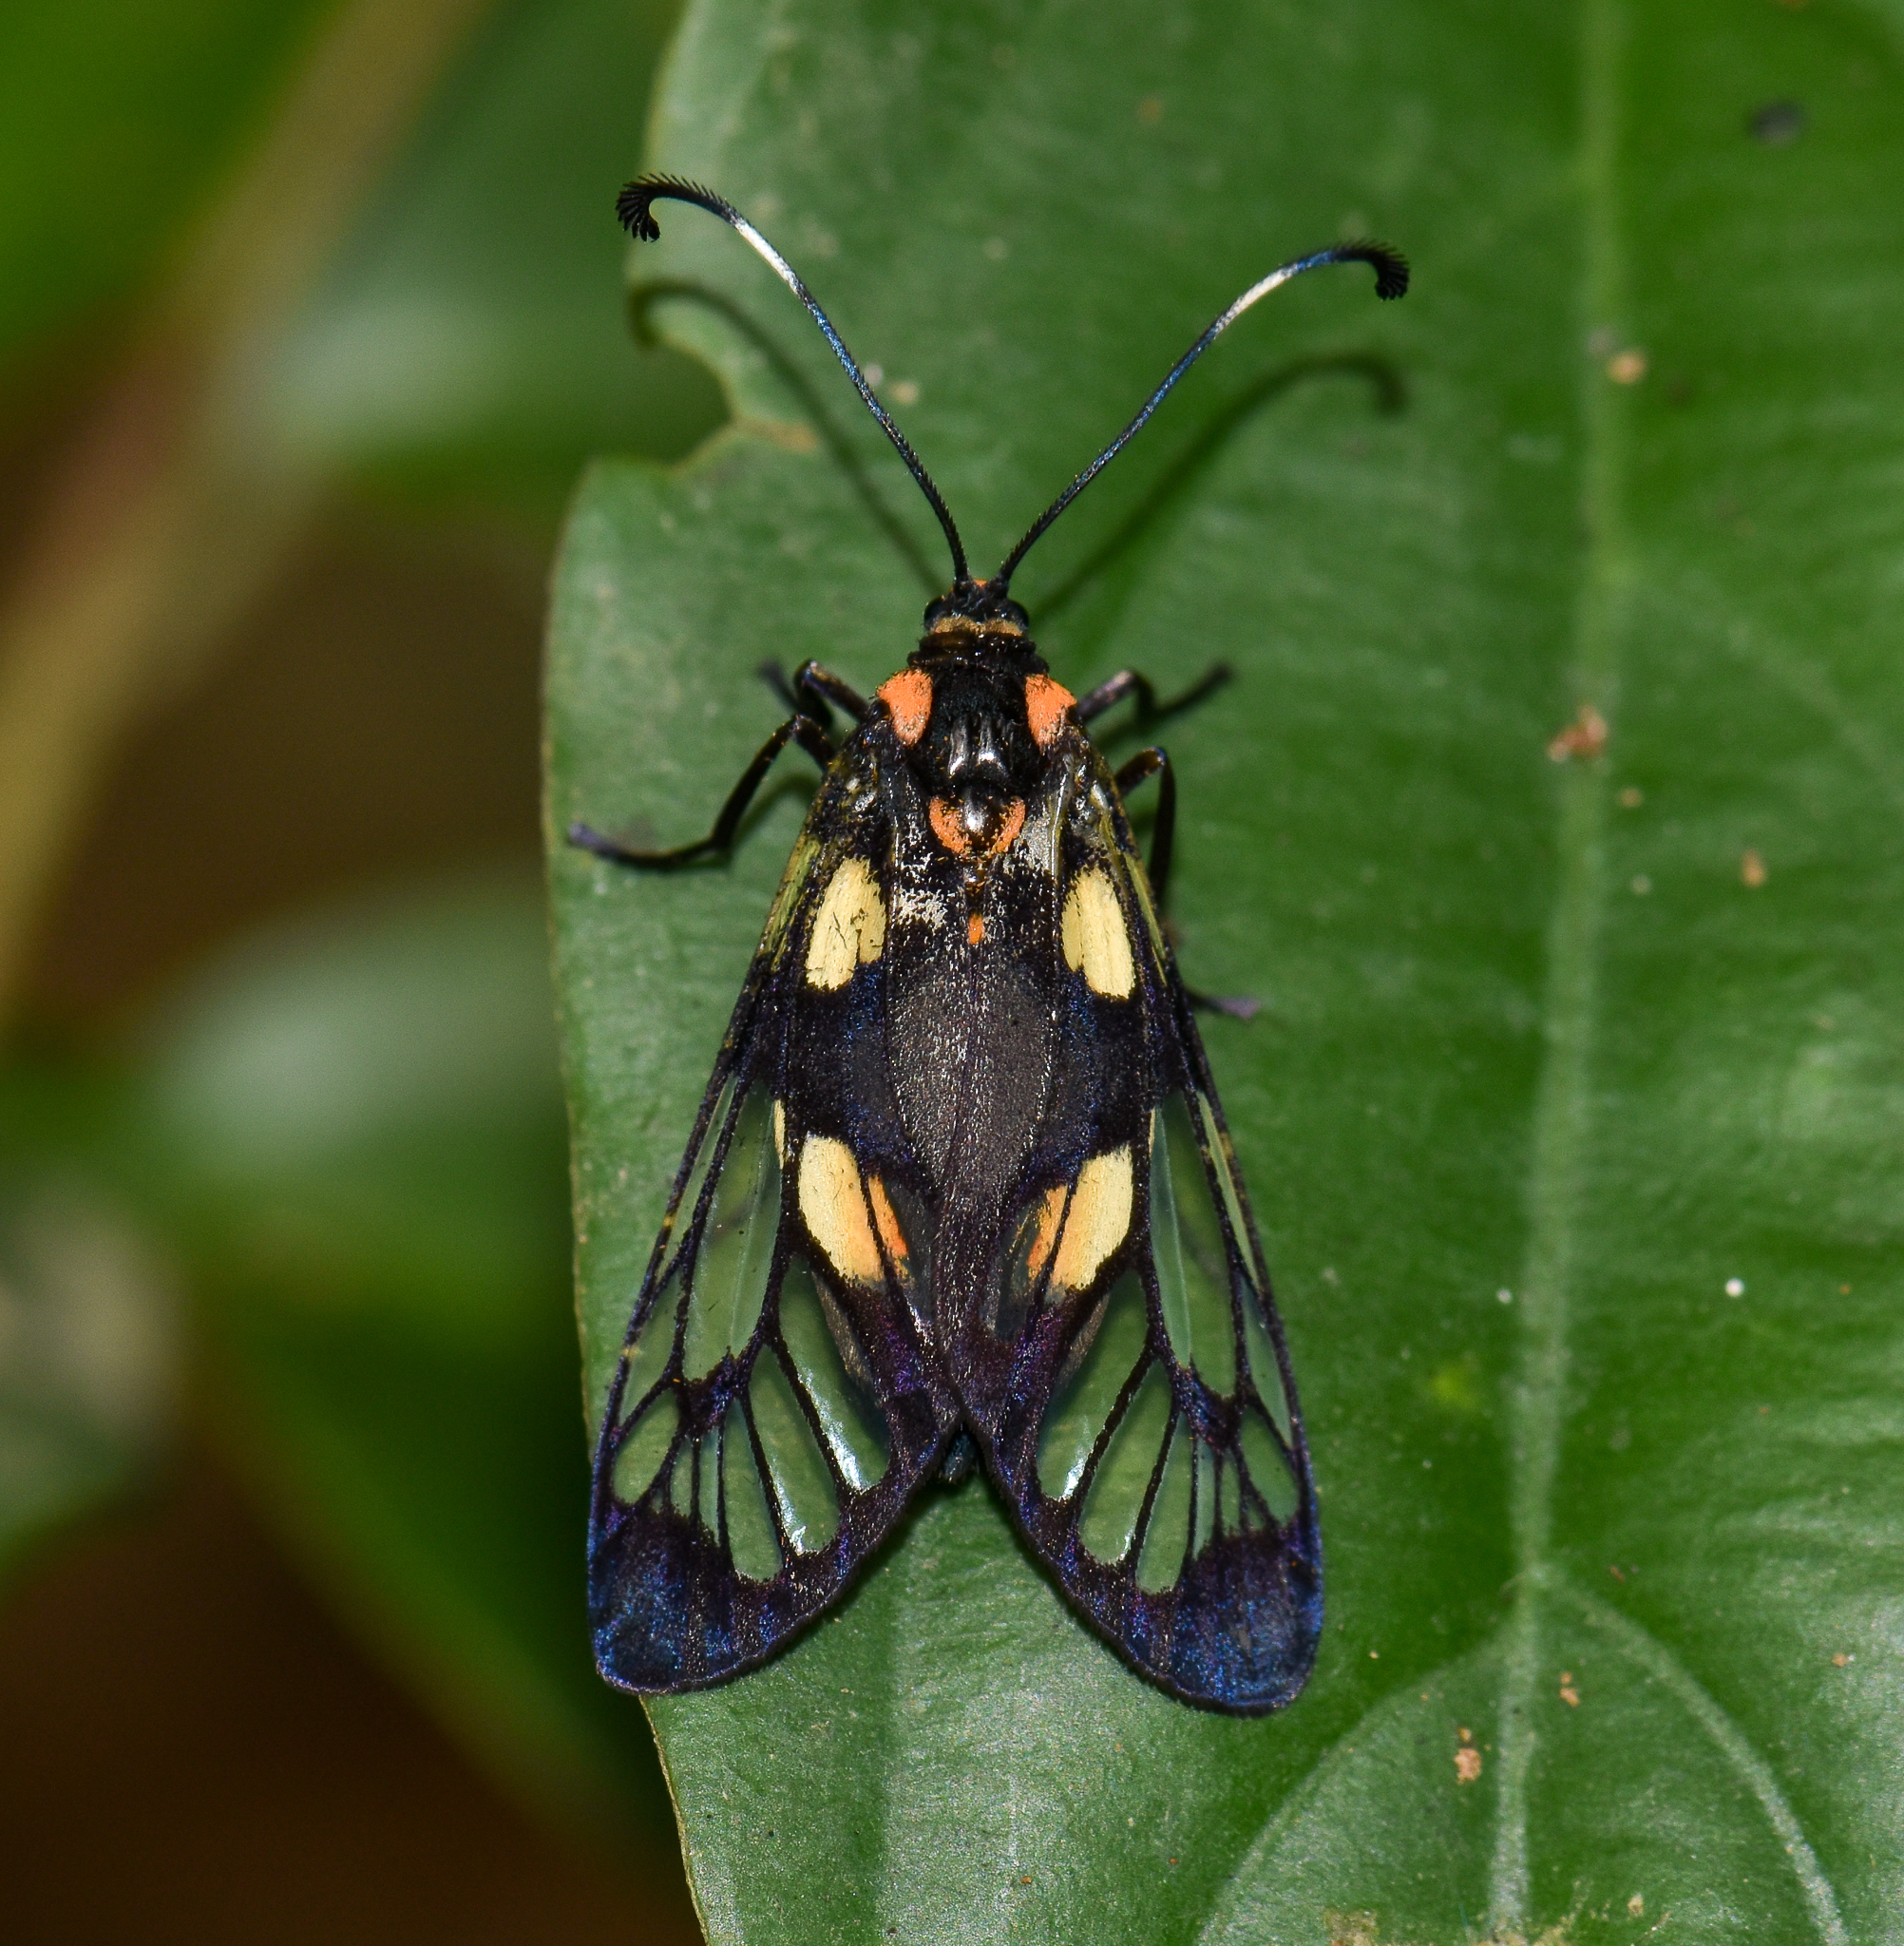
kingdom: Animalia
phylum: Arthropoda
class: Insecta
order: Lepidoptera
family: Zygaenidae
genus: Trypanophora
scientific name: Trypanophora semihyalina
